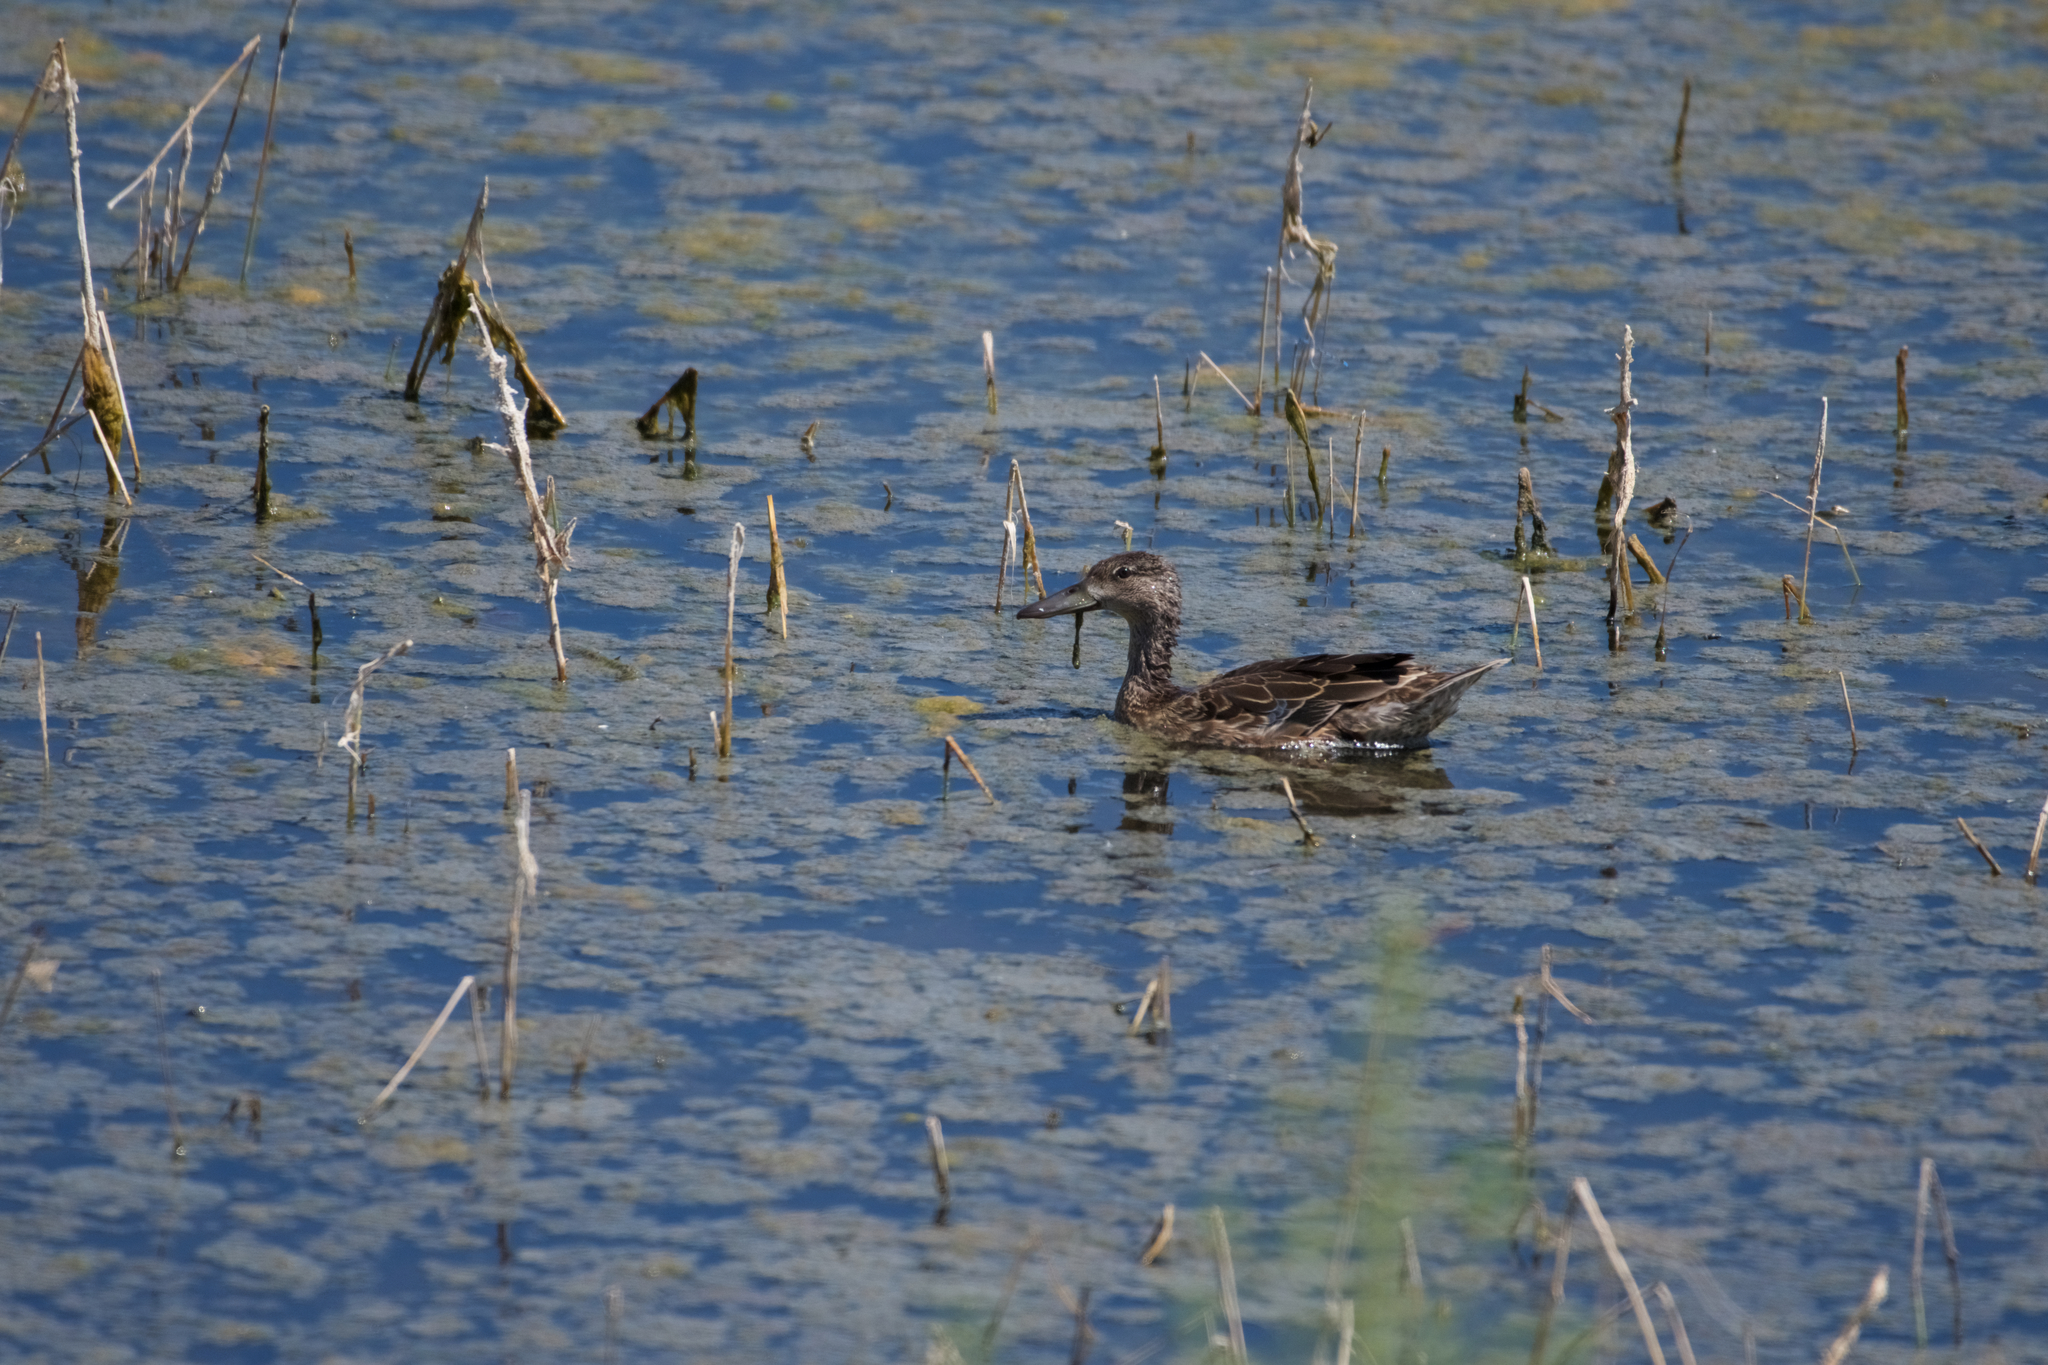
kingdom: Animalia
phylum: Chordata
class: Aves
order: Anseriformes
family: Anatidae
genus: Spatula
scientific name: Spatula clypeata
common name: Northern shoveler
